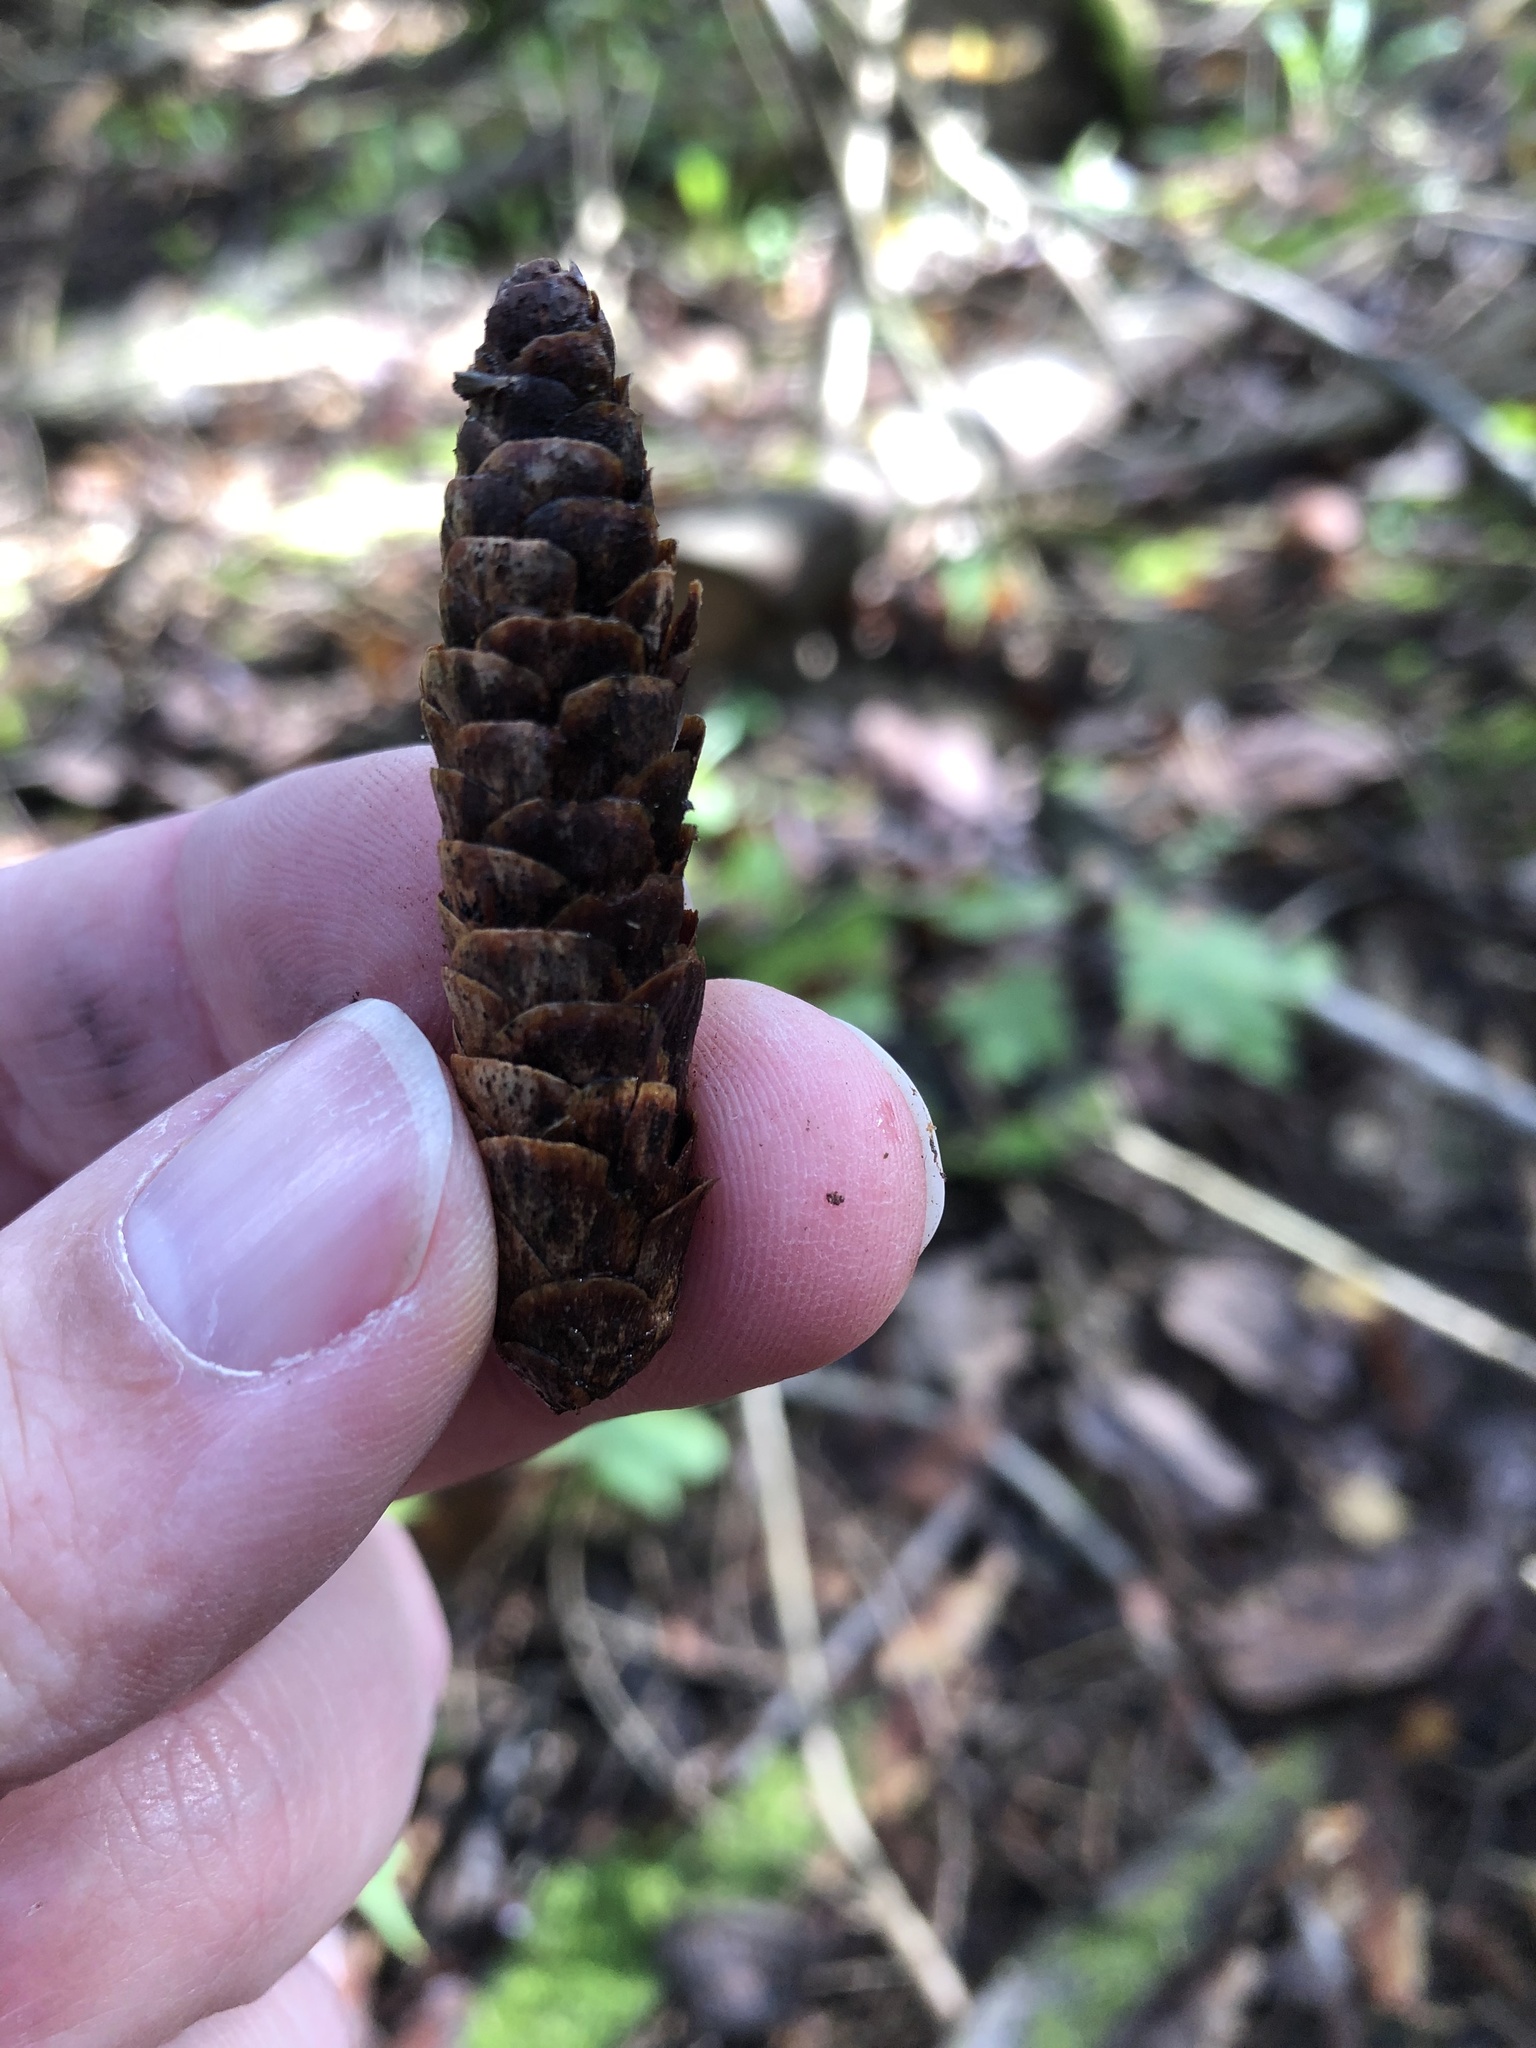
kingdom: Plantae
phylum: Tracheophyta
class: Pinopsida
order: Pinales
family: Pinaceae
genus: Picea
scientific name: Picea glauca
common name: White spruce
